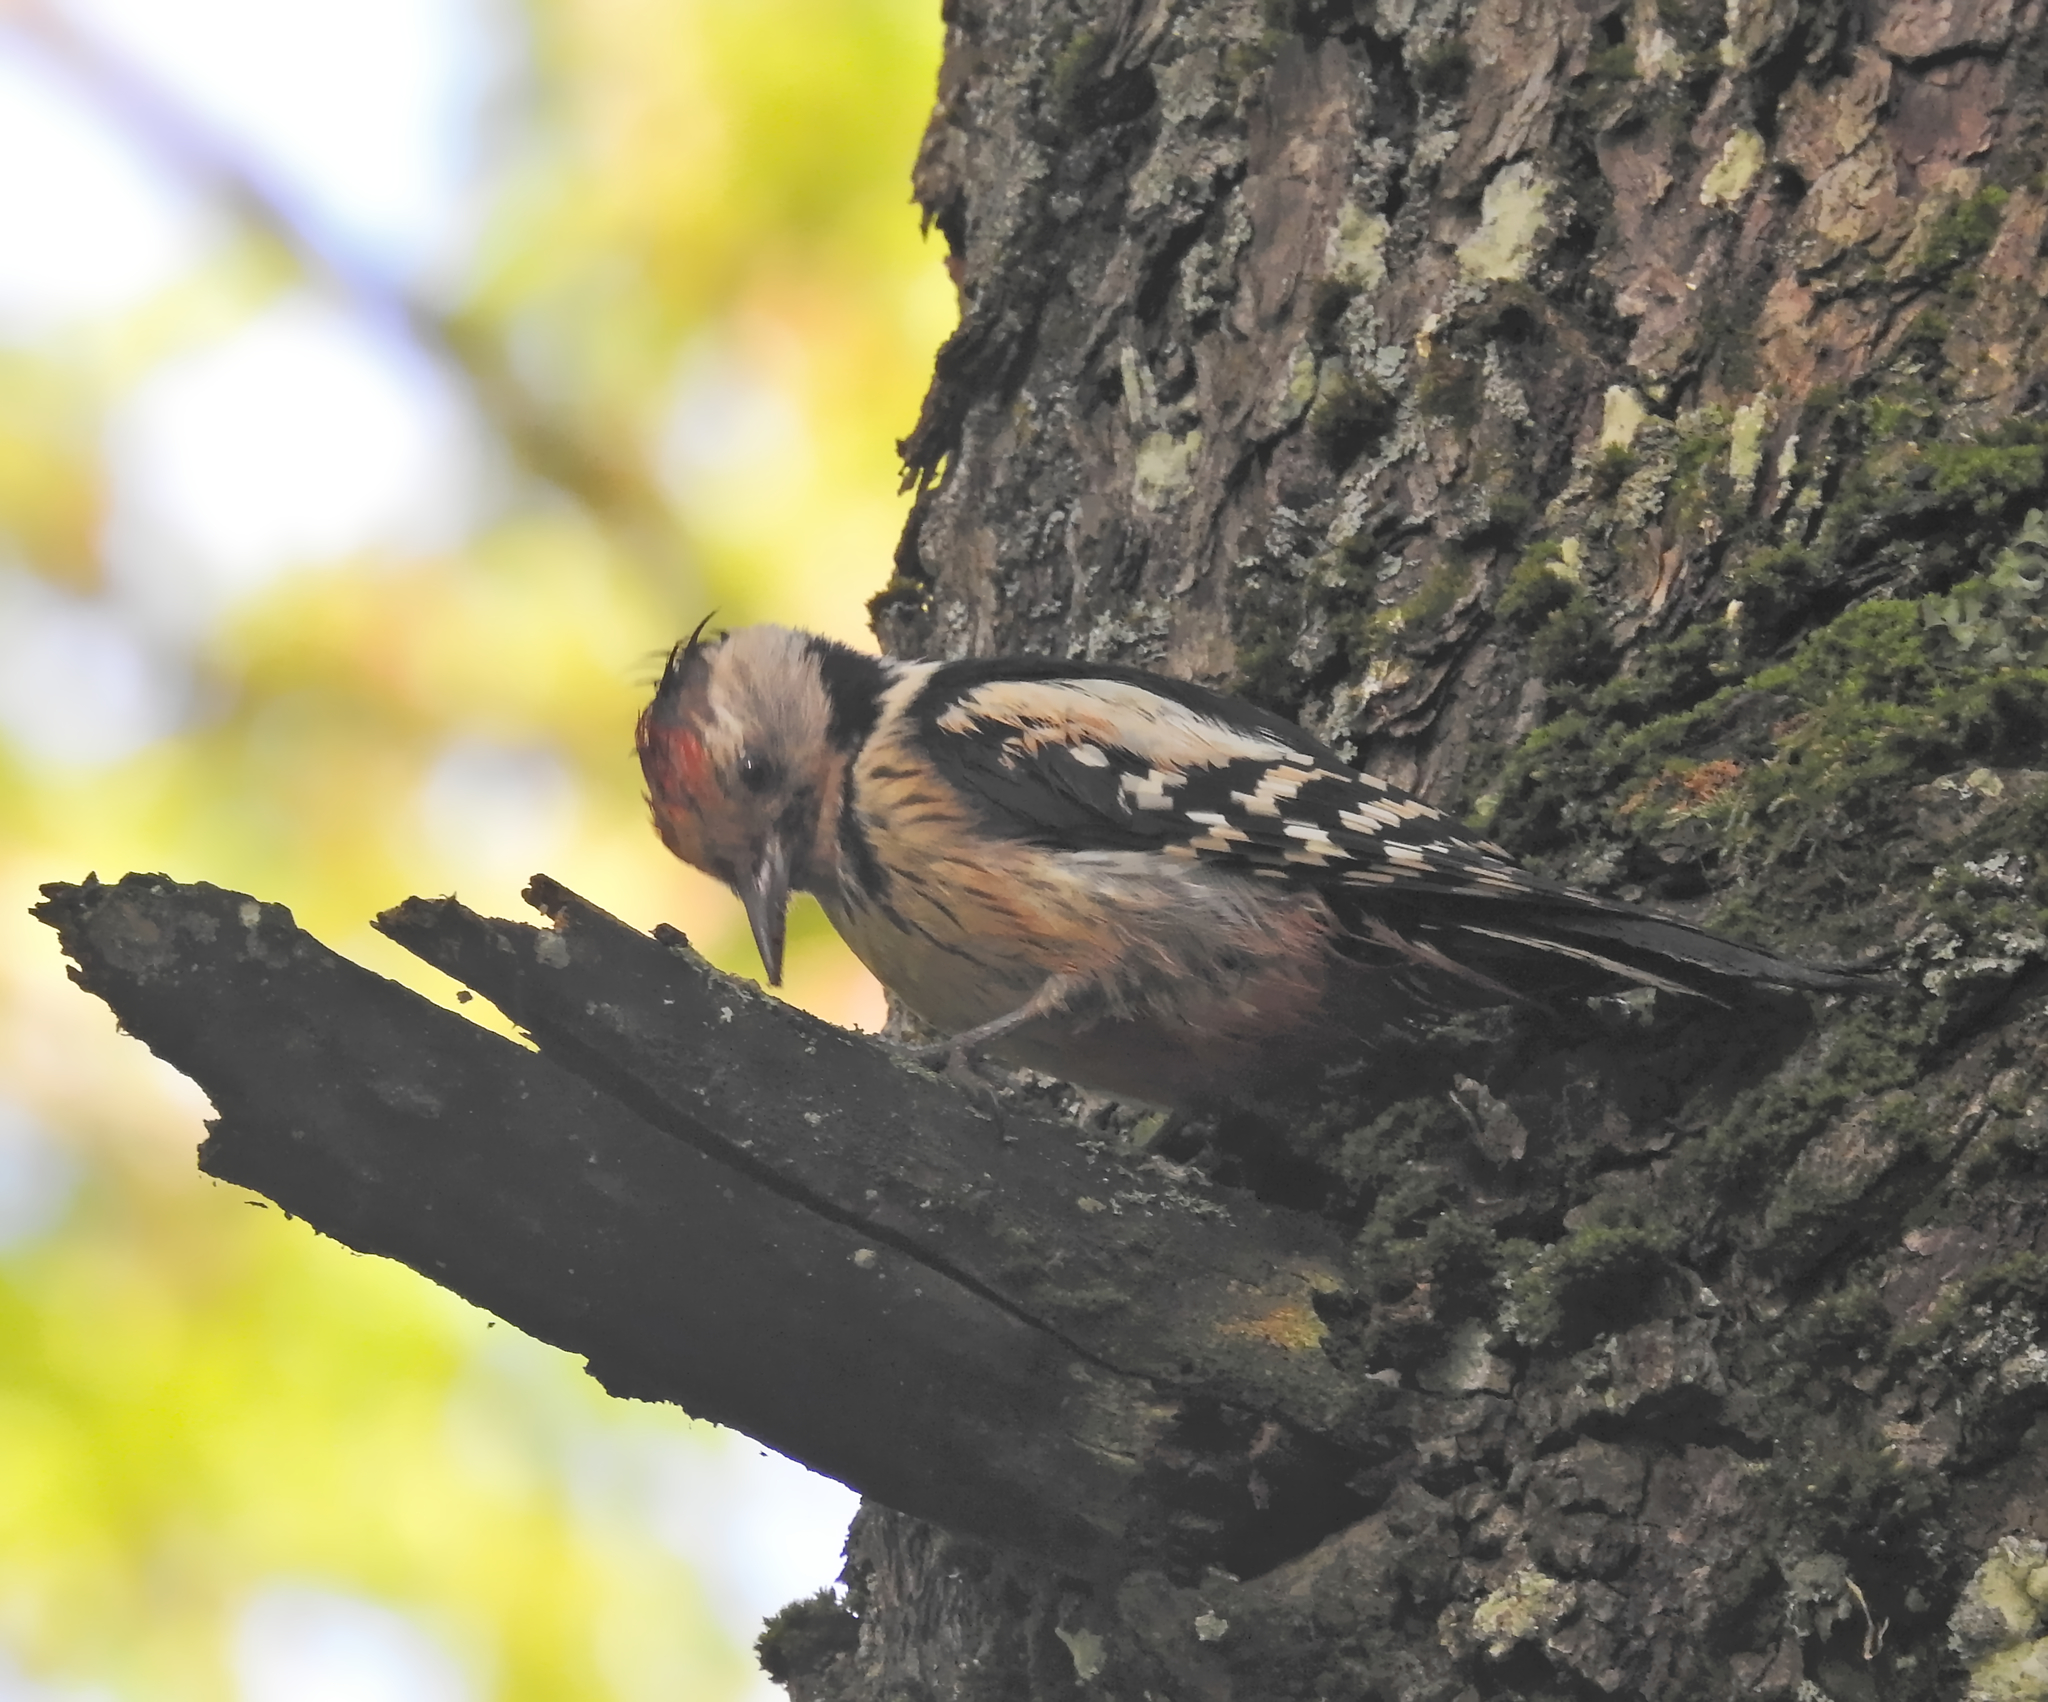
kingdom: Animalia
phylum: Chordata
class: Aves
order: Piciformes
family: Picidae
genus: Dendrocoptes
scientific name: Dendrocoptes medius
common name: Middle spotted woodpecker
